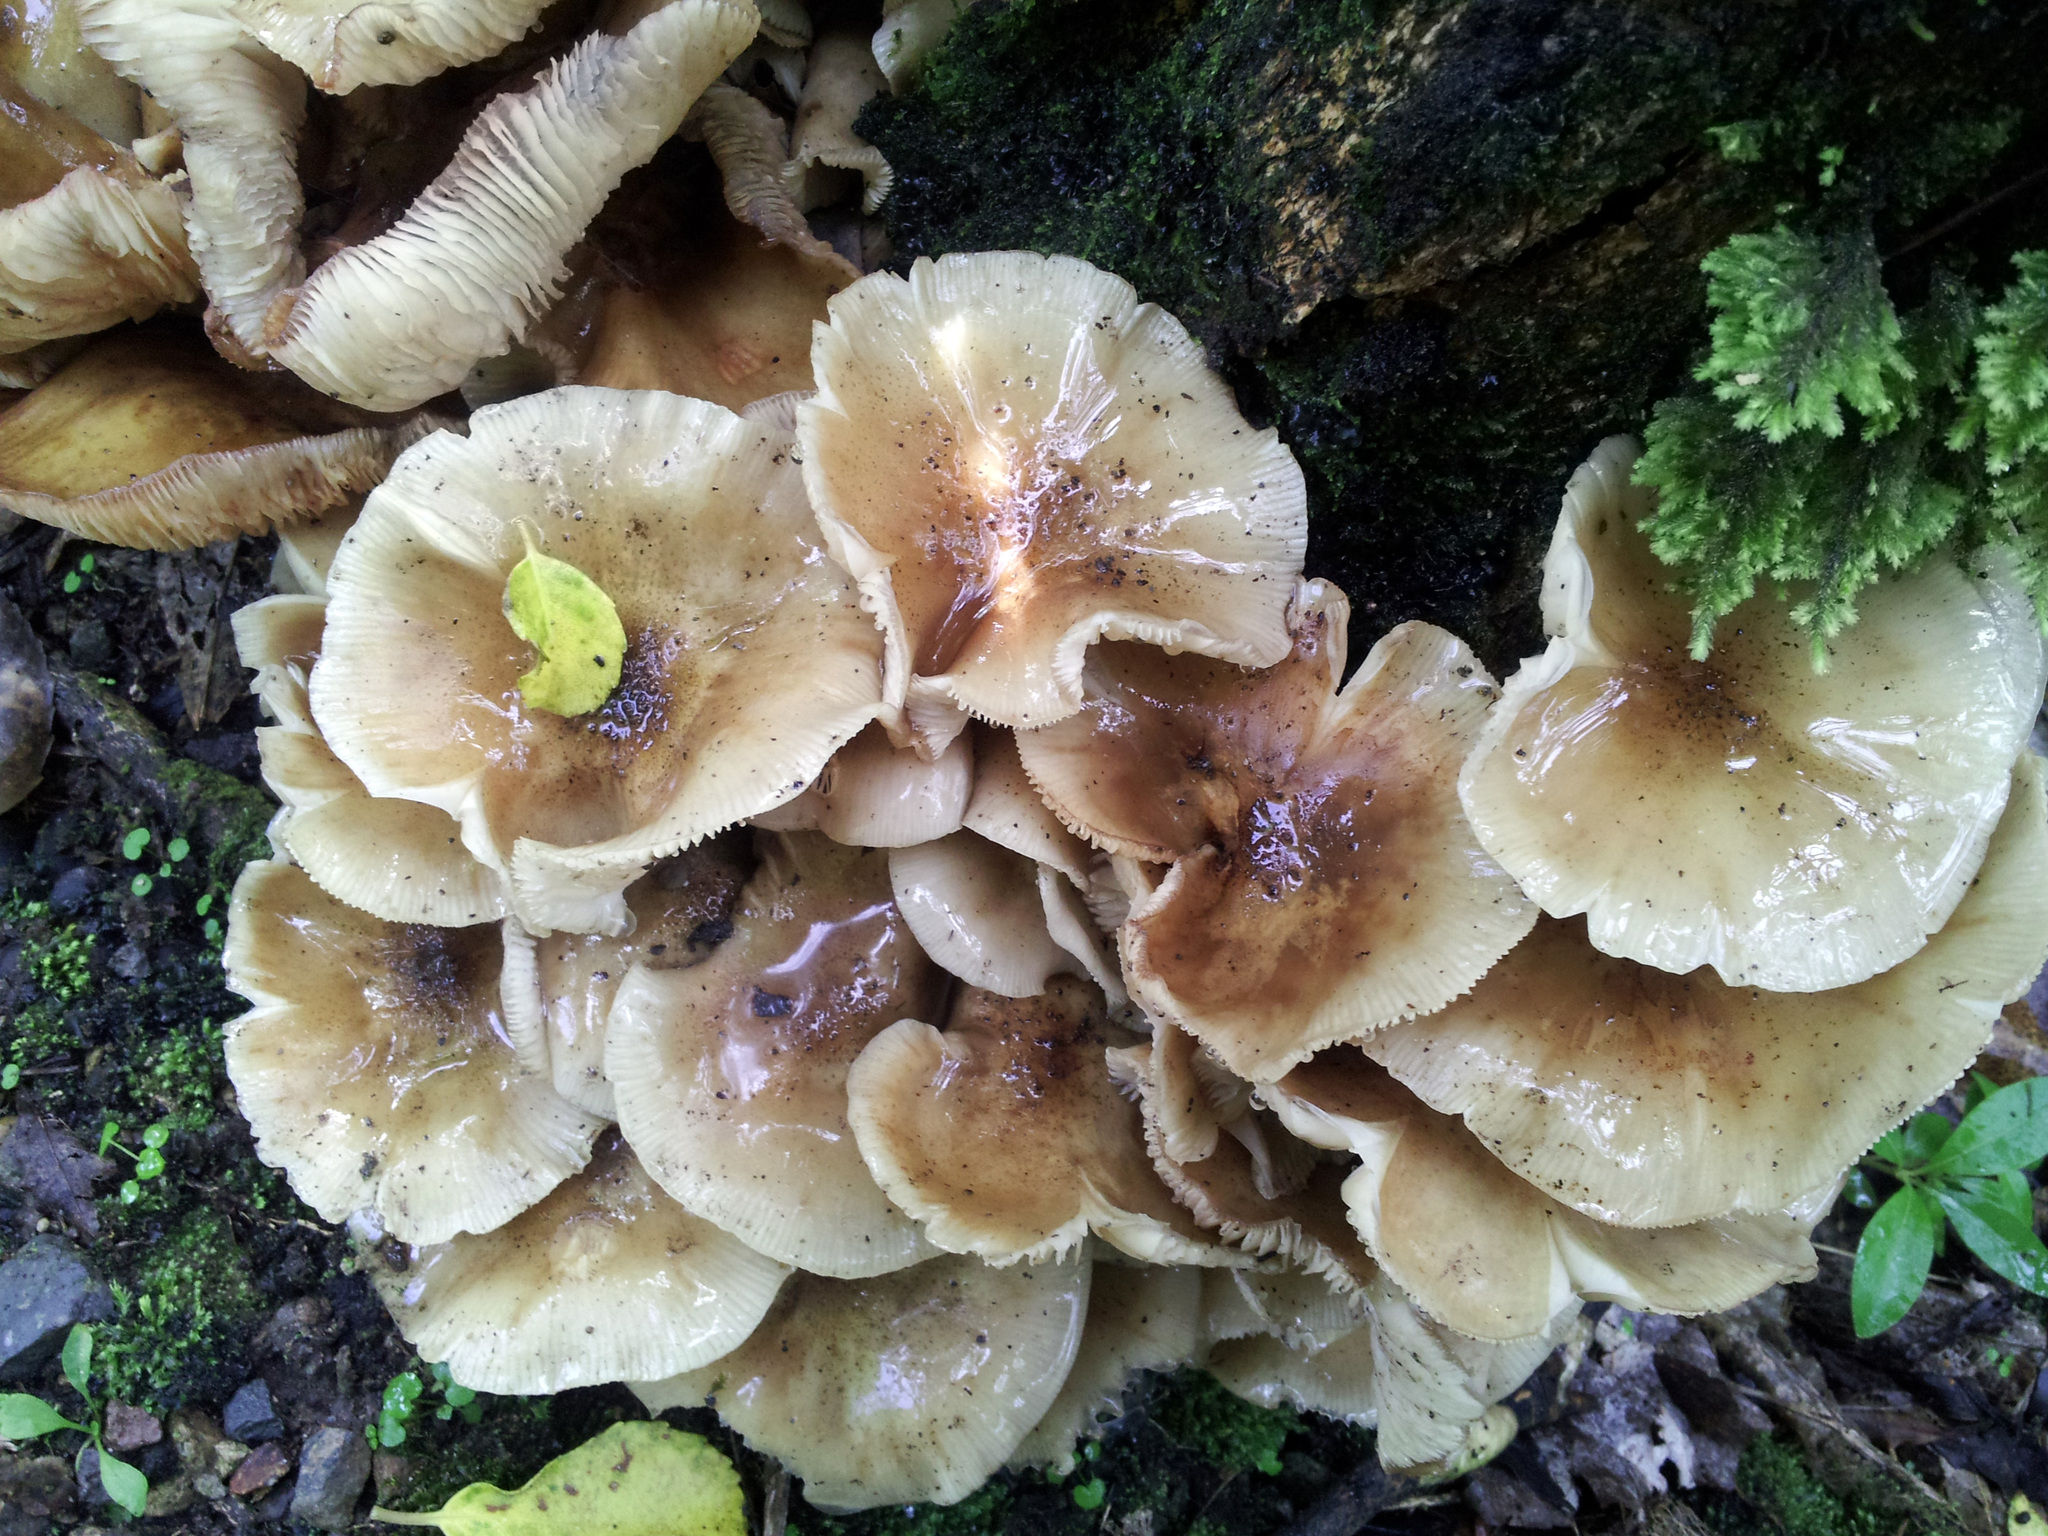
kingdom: Fungi
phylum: Basidiomycota
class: Agaricomycetes
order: Agaricales
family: Physalacriaceae
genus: Armillaria
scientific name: Armillaria novae-zelandiae
